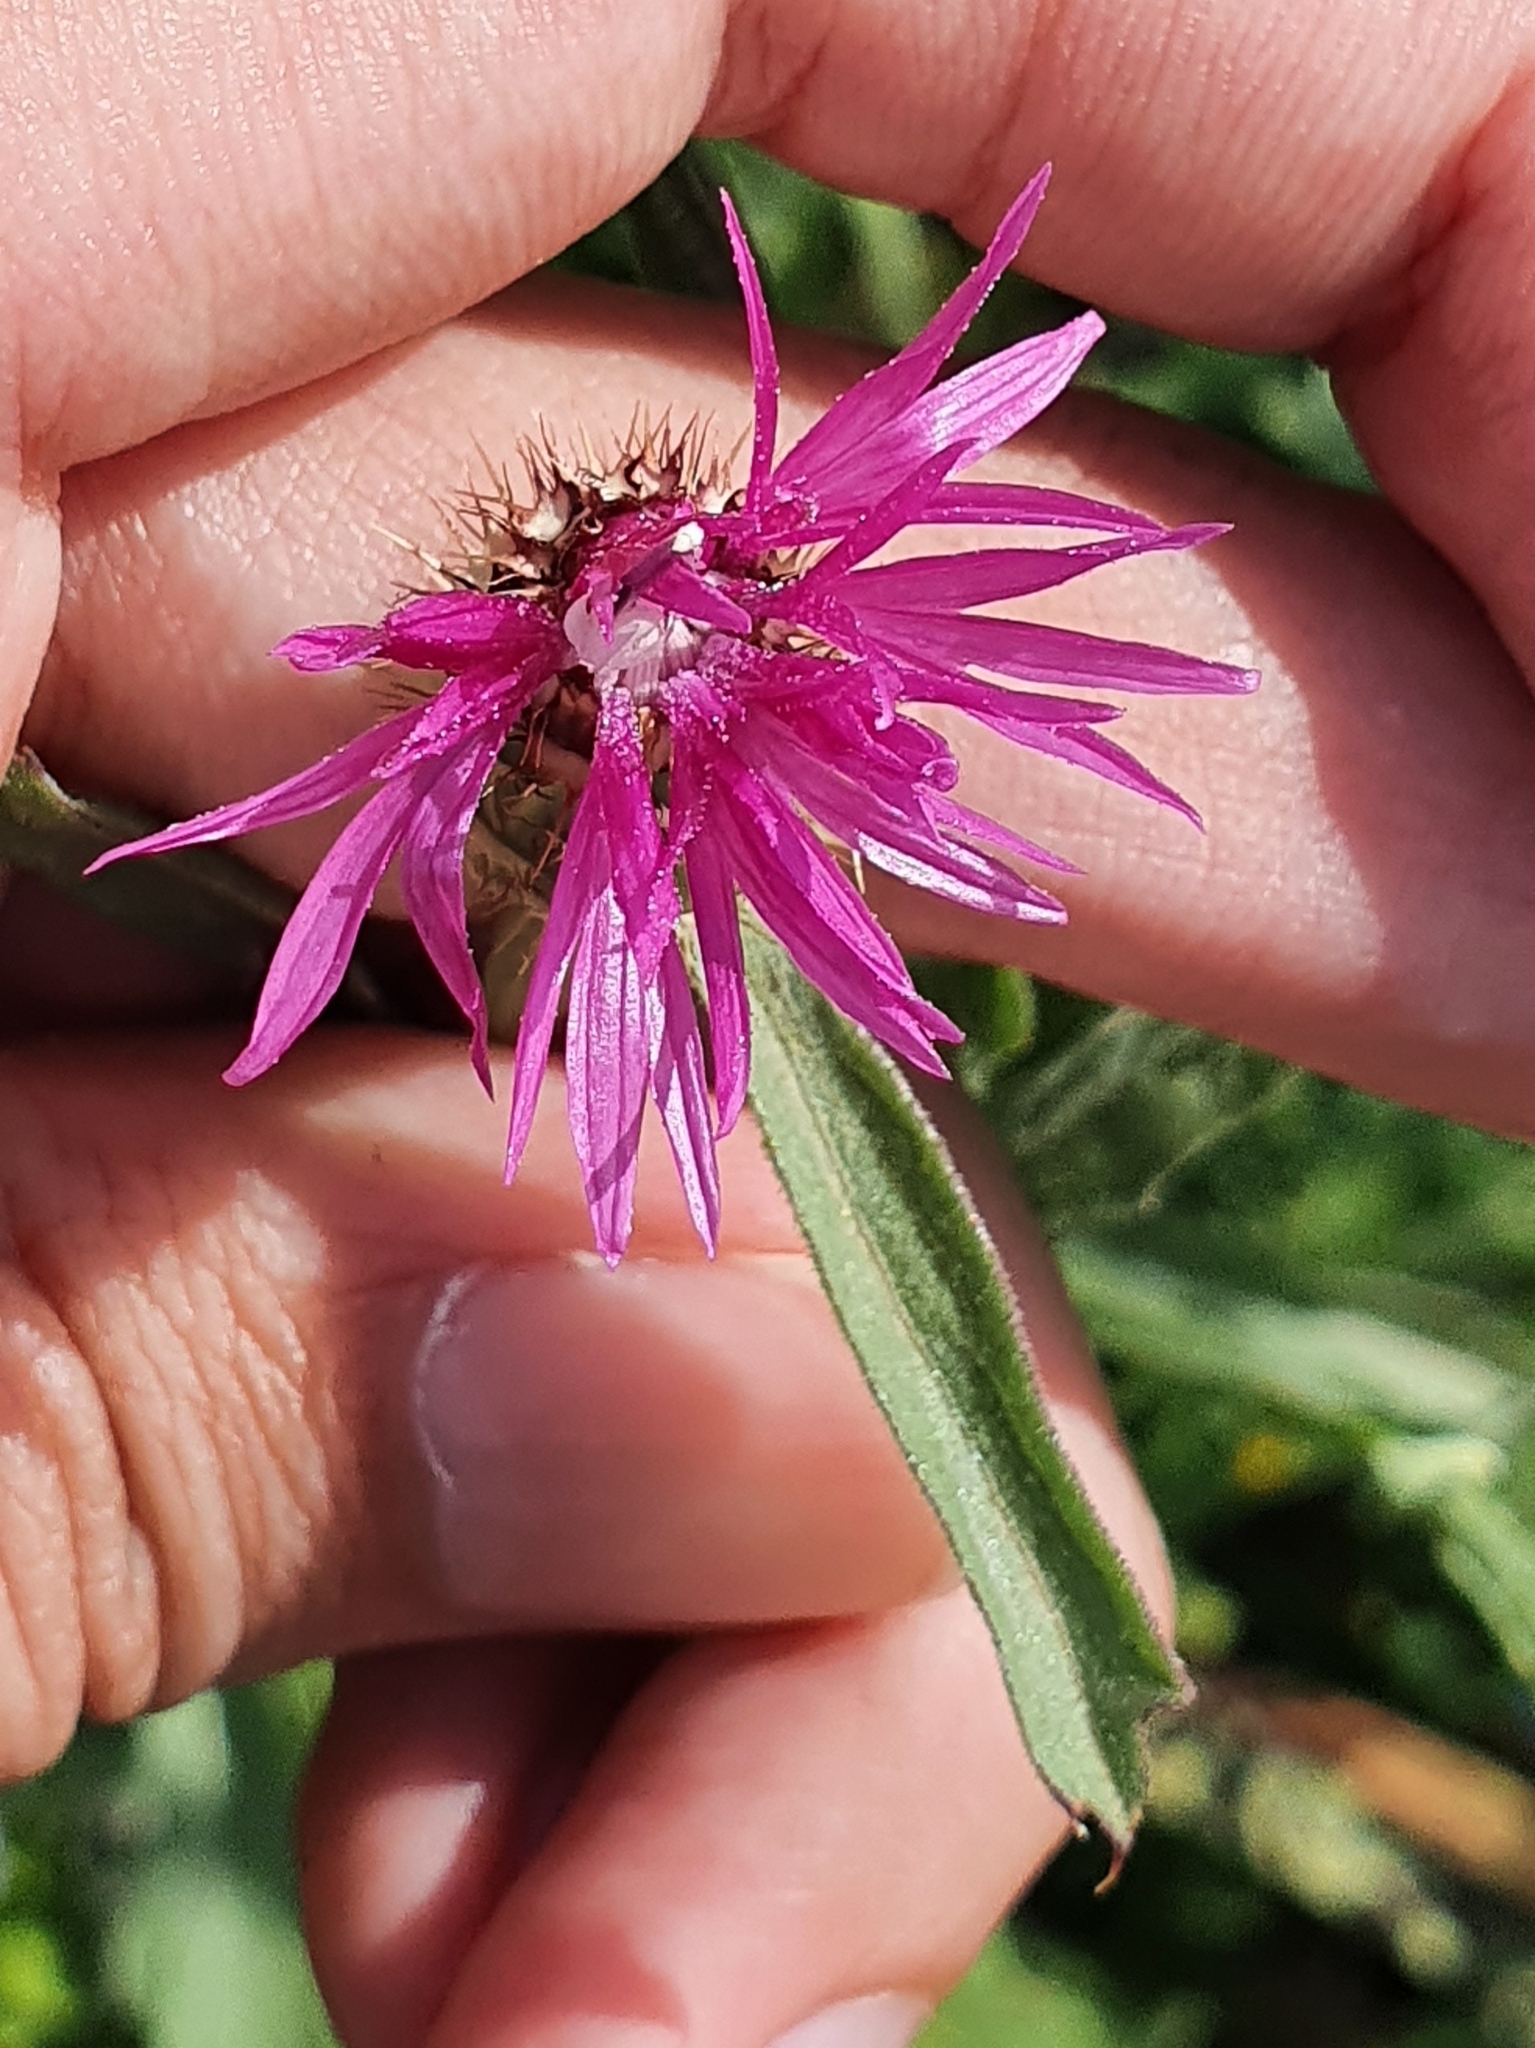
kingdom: Plantae
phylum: Tracheophyta
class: Magnoliopsida
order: Asterales
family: Asteraceae
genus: Centaurea
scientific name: Centaurea napifolia
